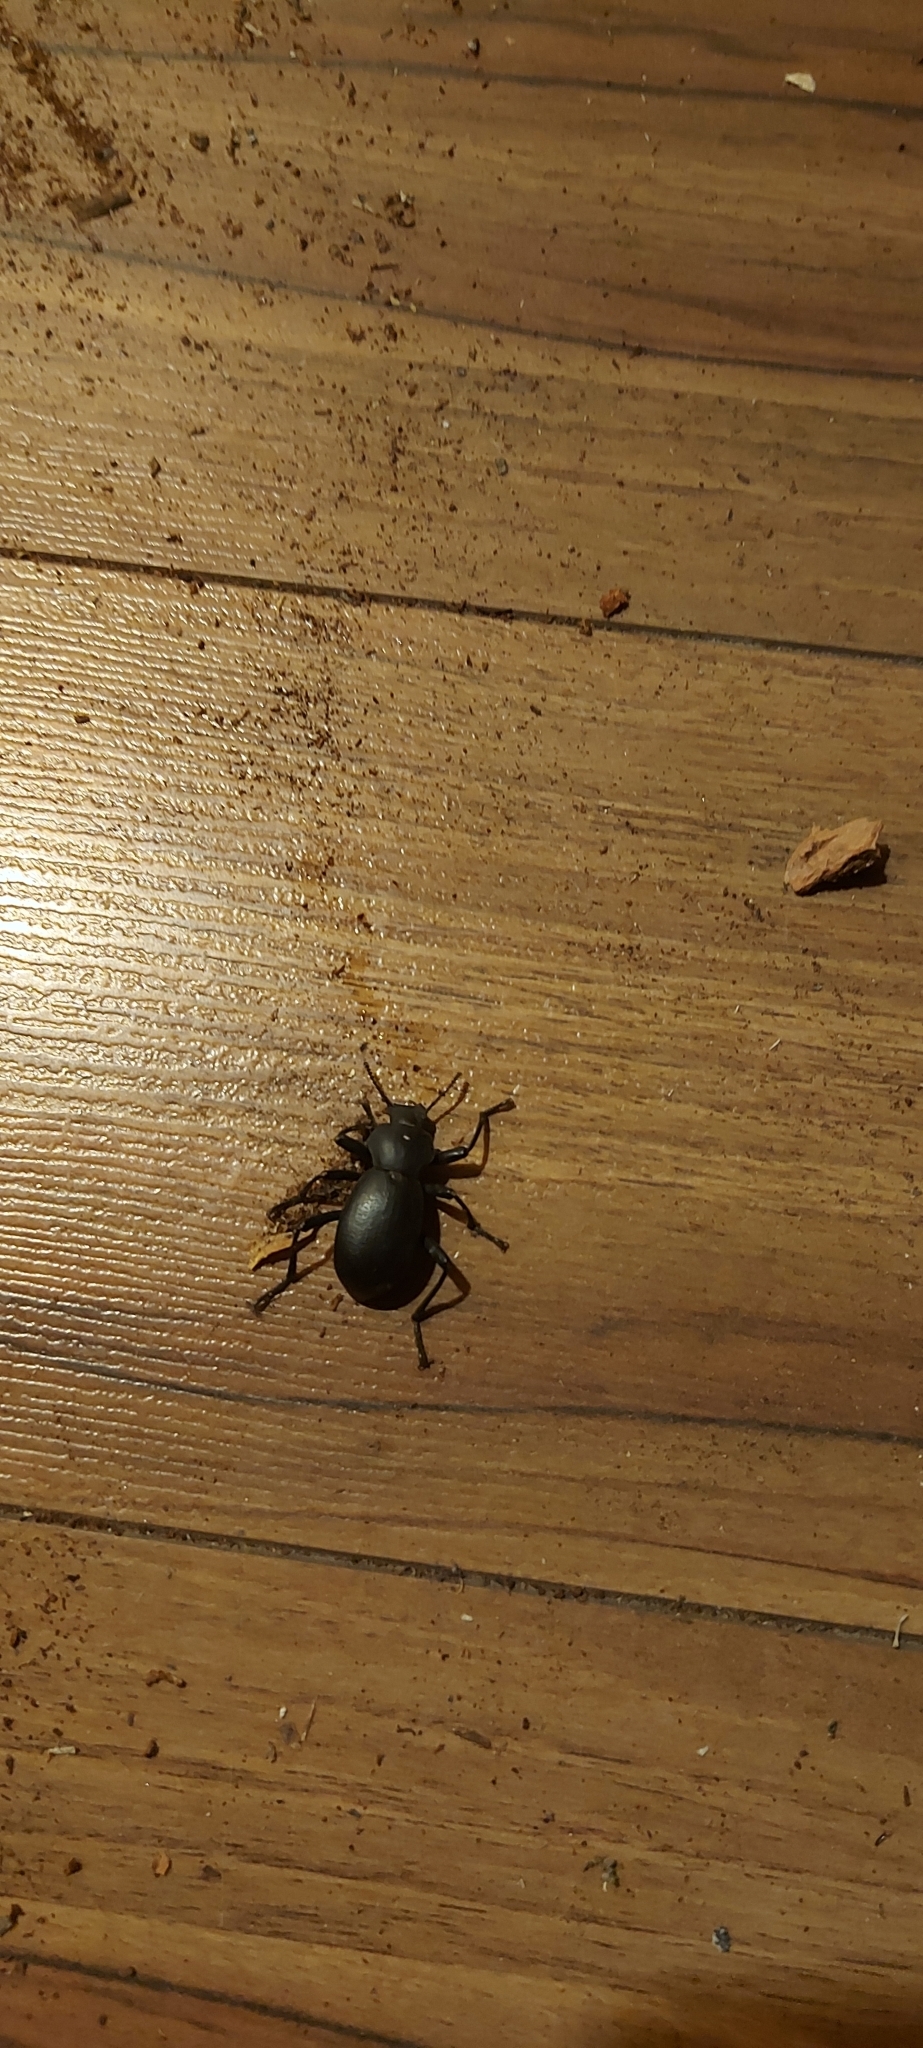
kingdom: Animalia
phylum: Arthropoda
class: Insecta
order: Coleoptera
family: Tenebrionidae
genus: Coelocnemis
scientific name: Coelocnemis dilaticollis
